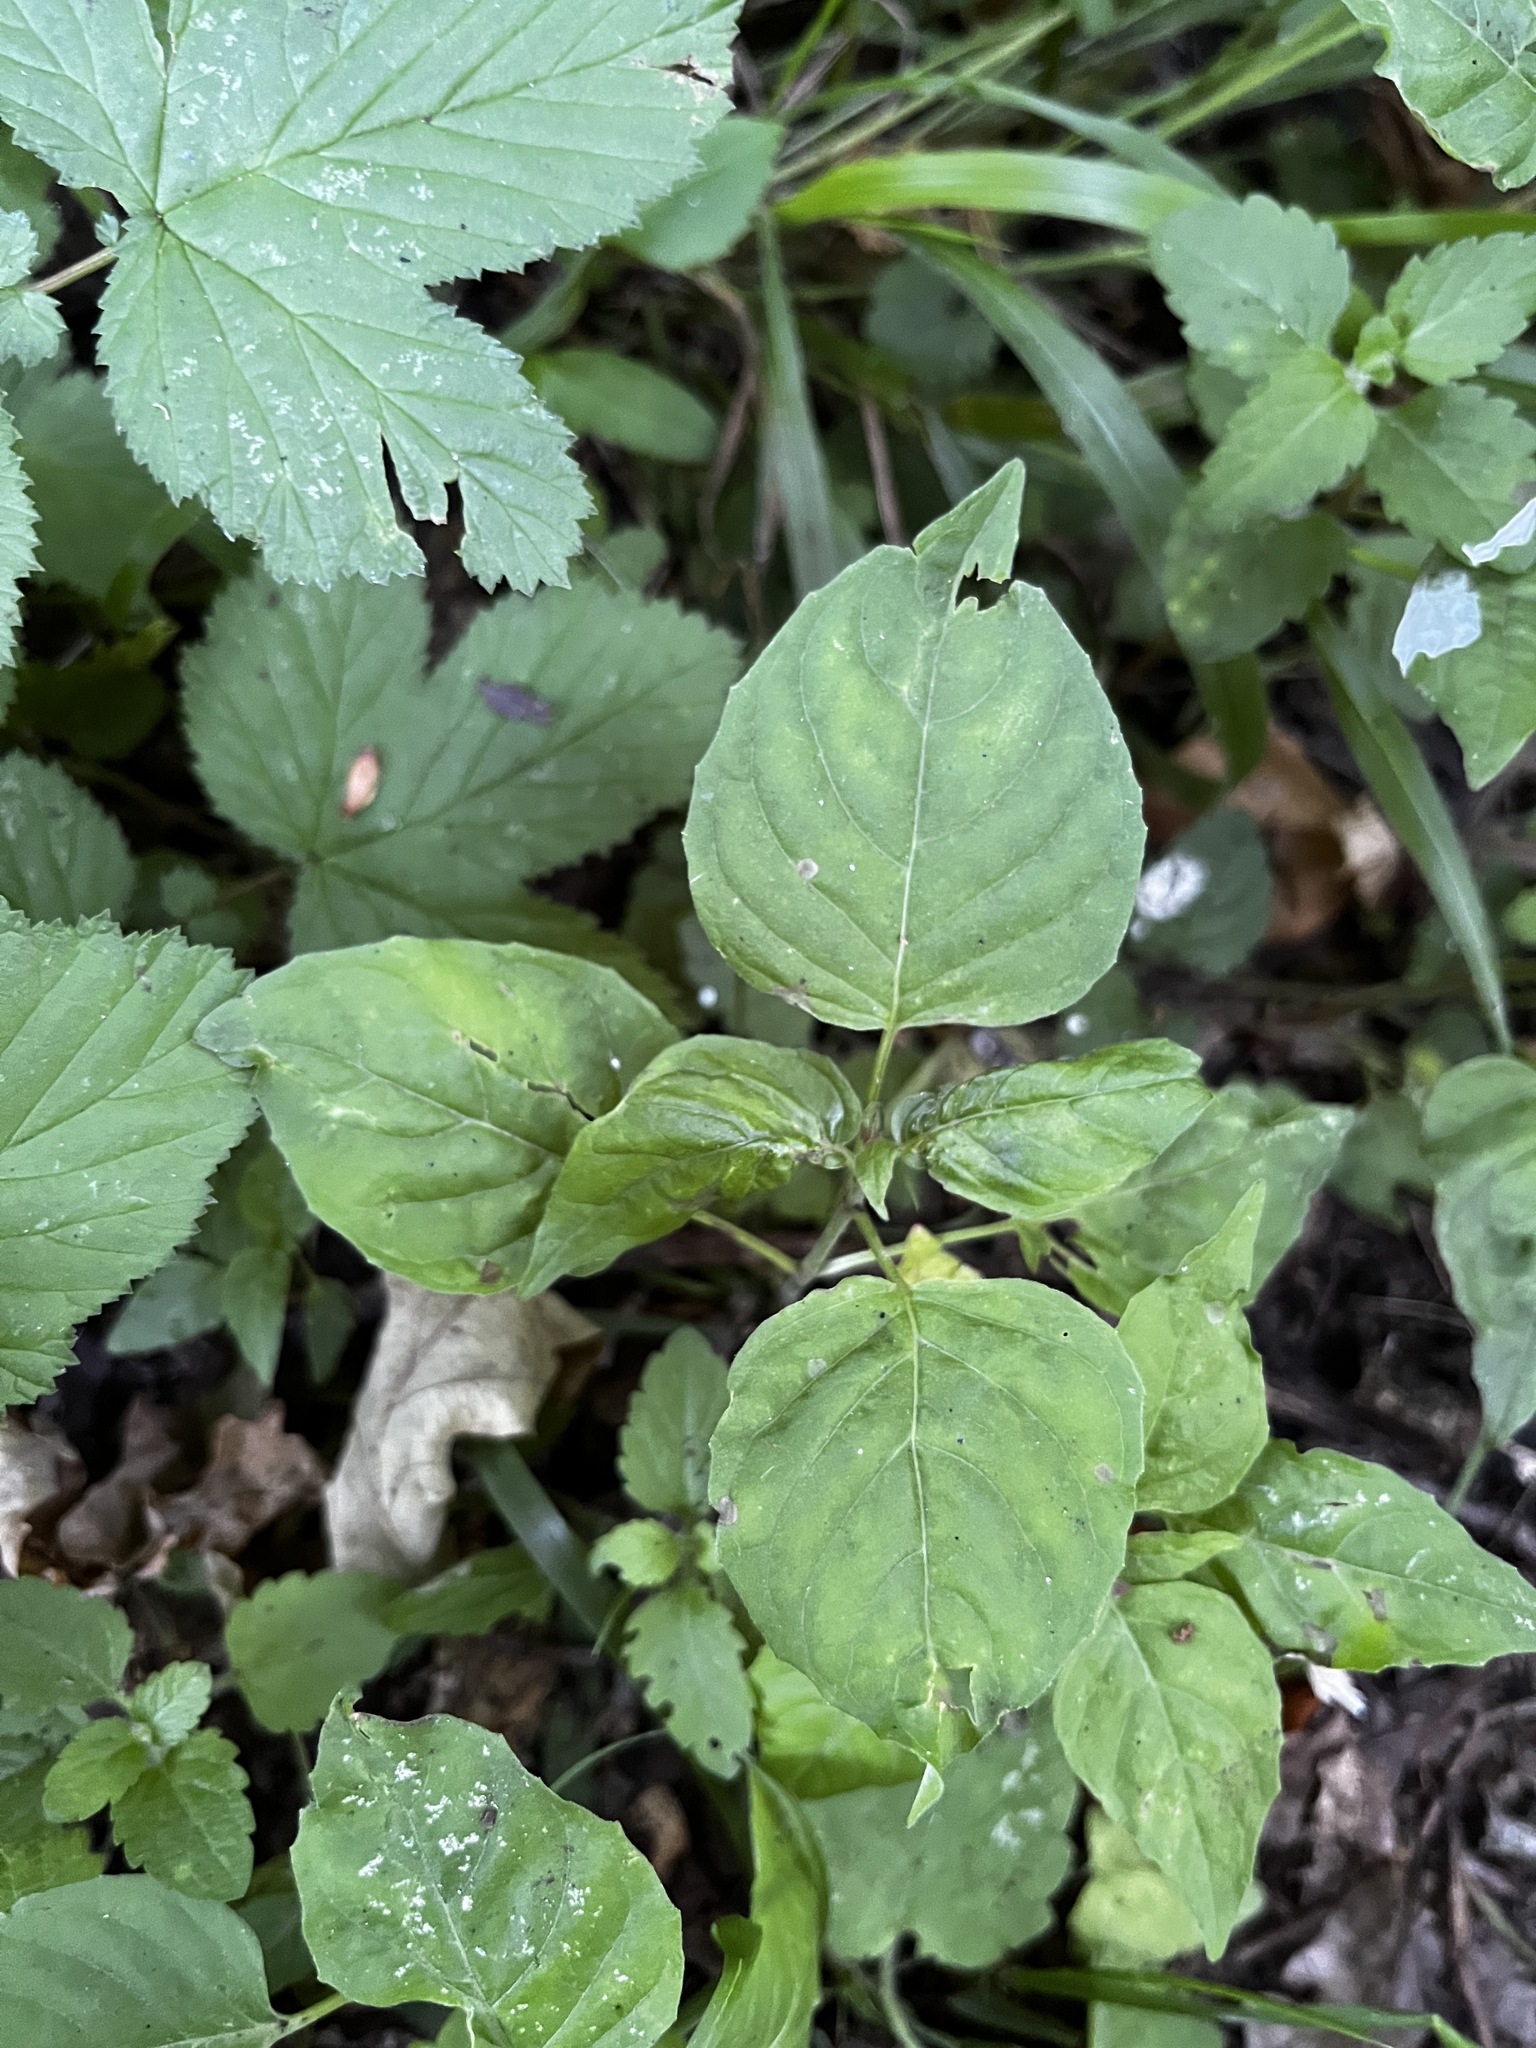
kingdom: Plantae
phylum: Tracheophyta
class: Magnoliopsida
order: Myrtales
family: Onagraceae
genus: Circaea
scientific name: Circaea lutetiana
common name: Enchanter's-nightshade
